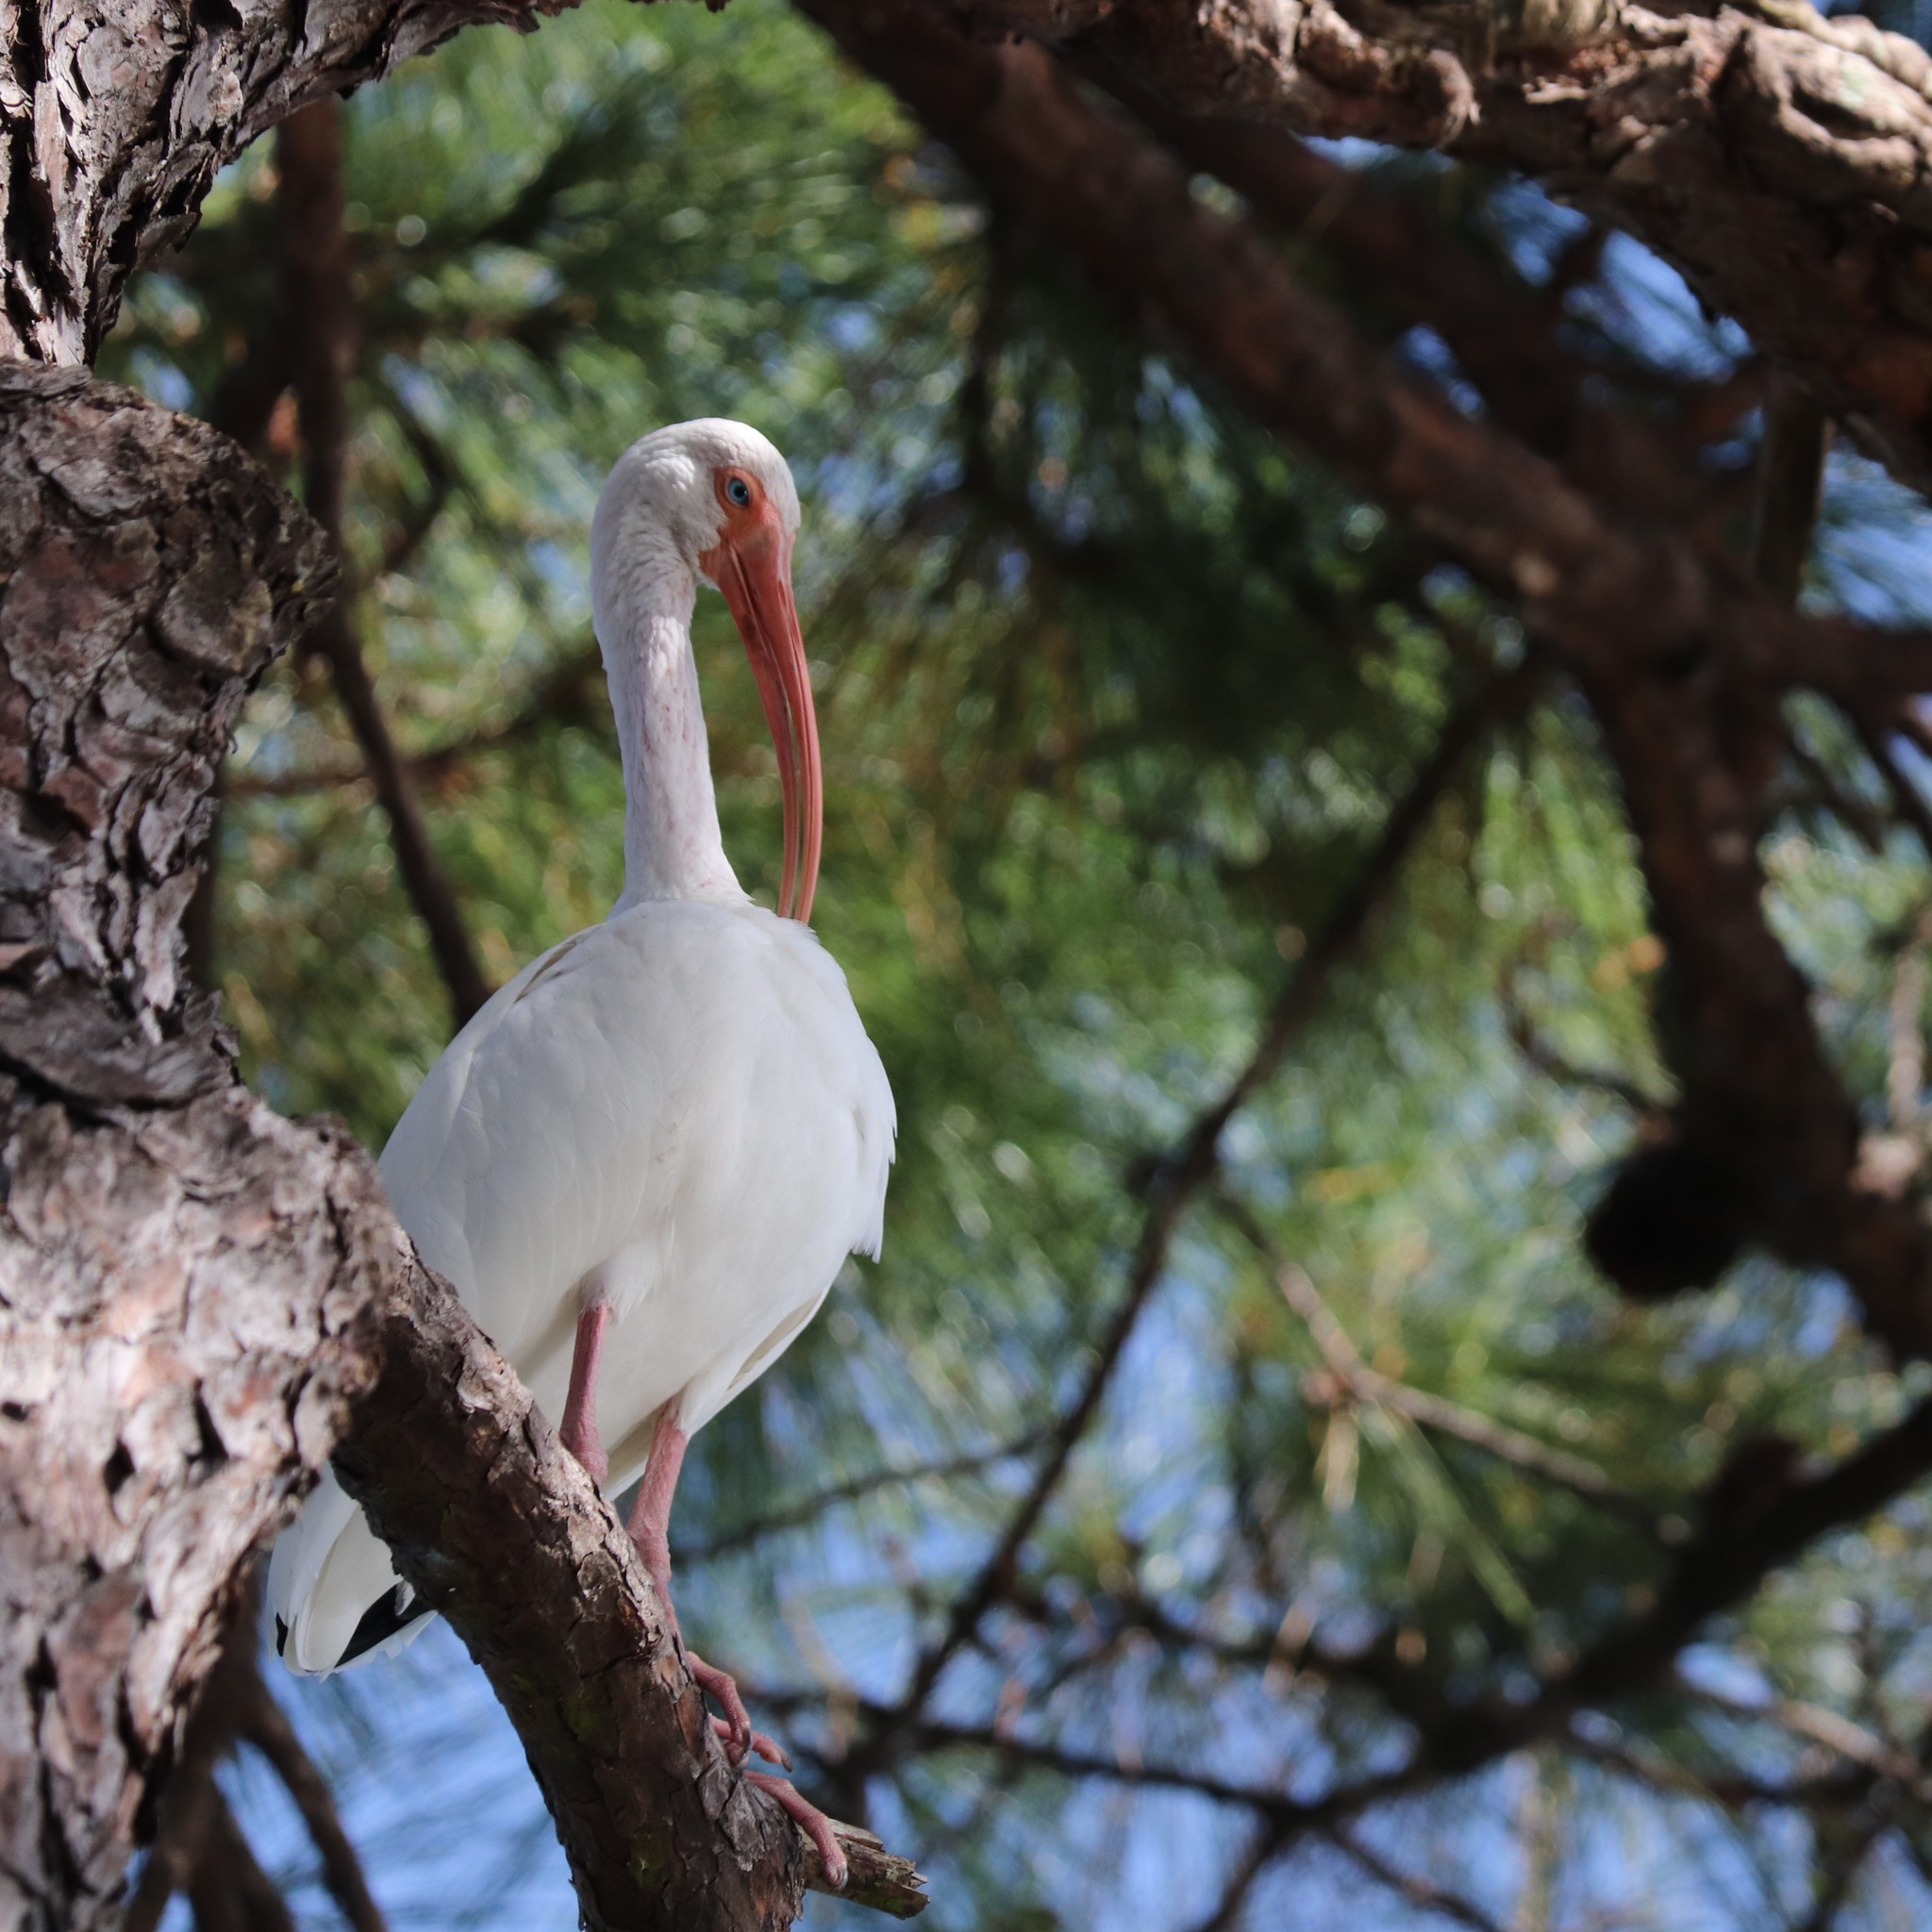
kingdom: Animalia
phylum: Chordata
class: Aves
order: Pelecaniformes
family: Threskiornithidae
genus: Eudocimus
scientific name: Eudocimus albus
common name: White ibis
